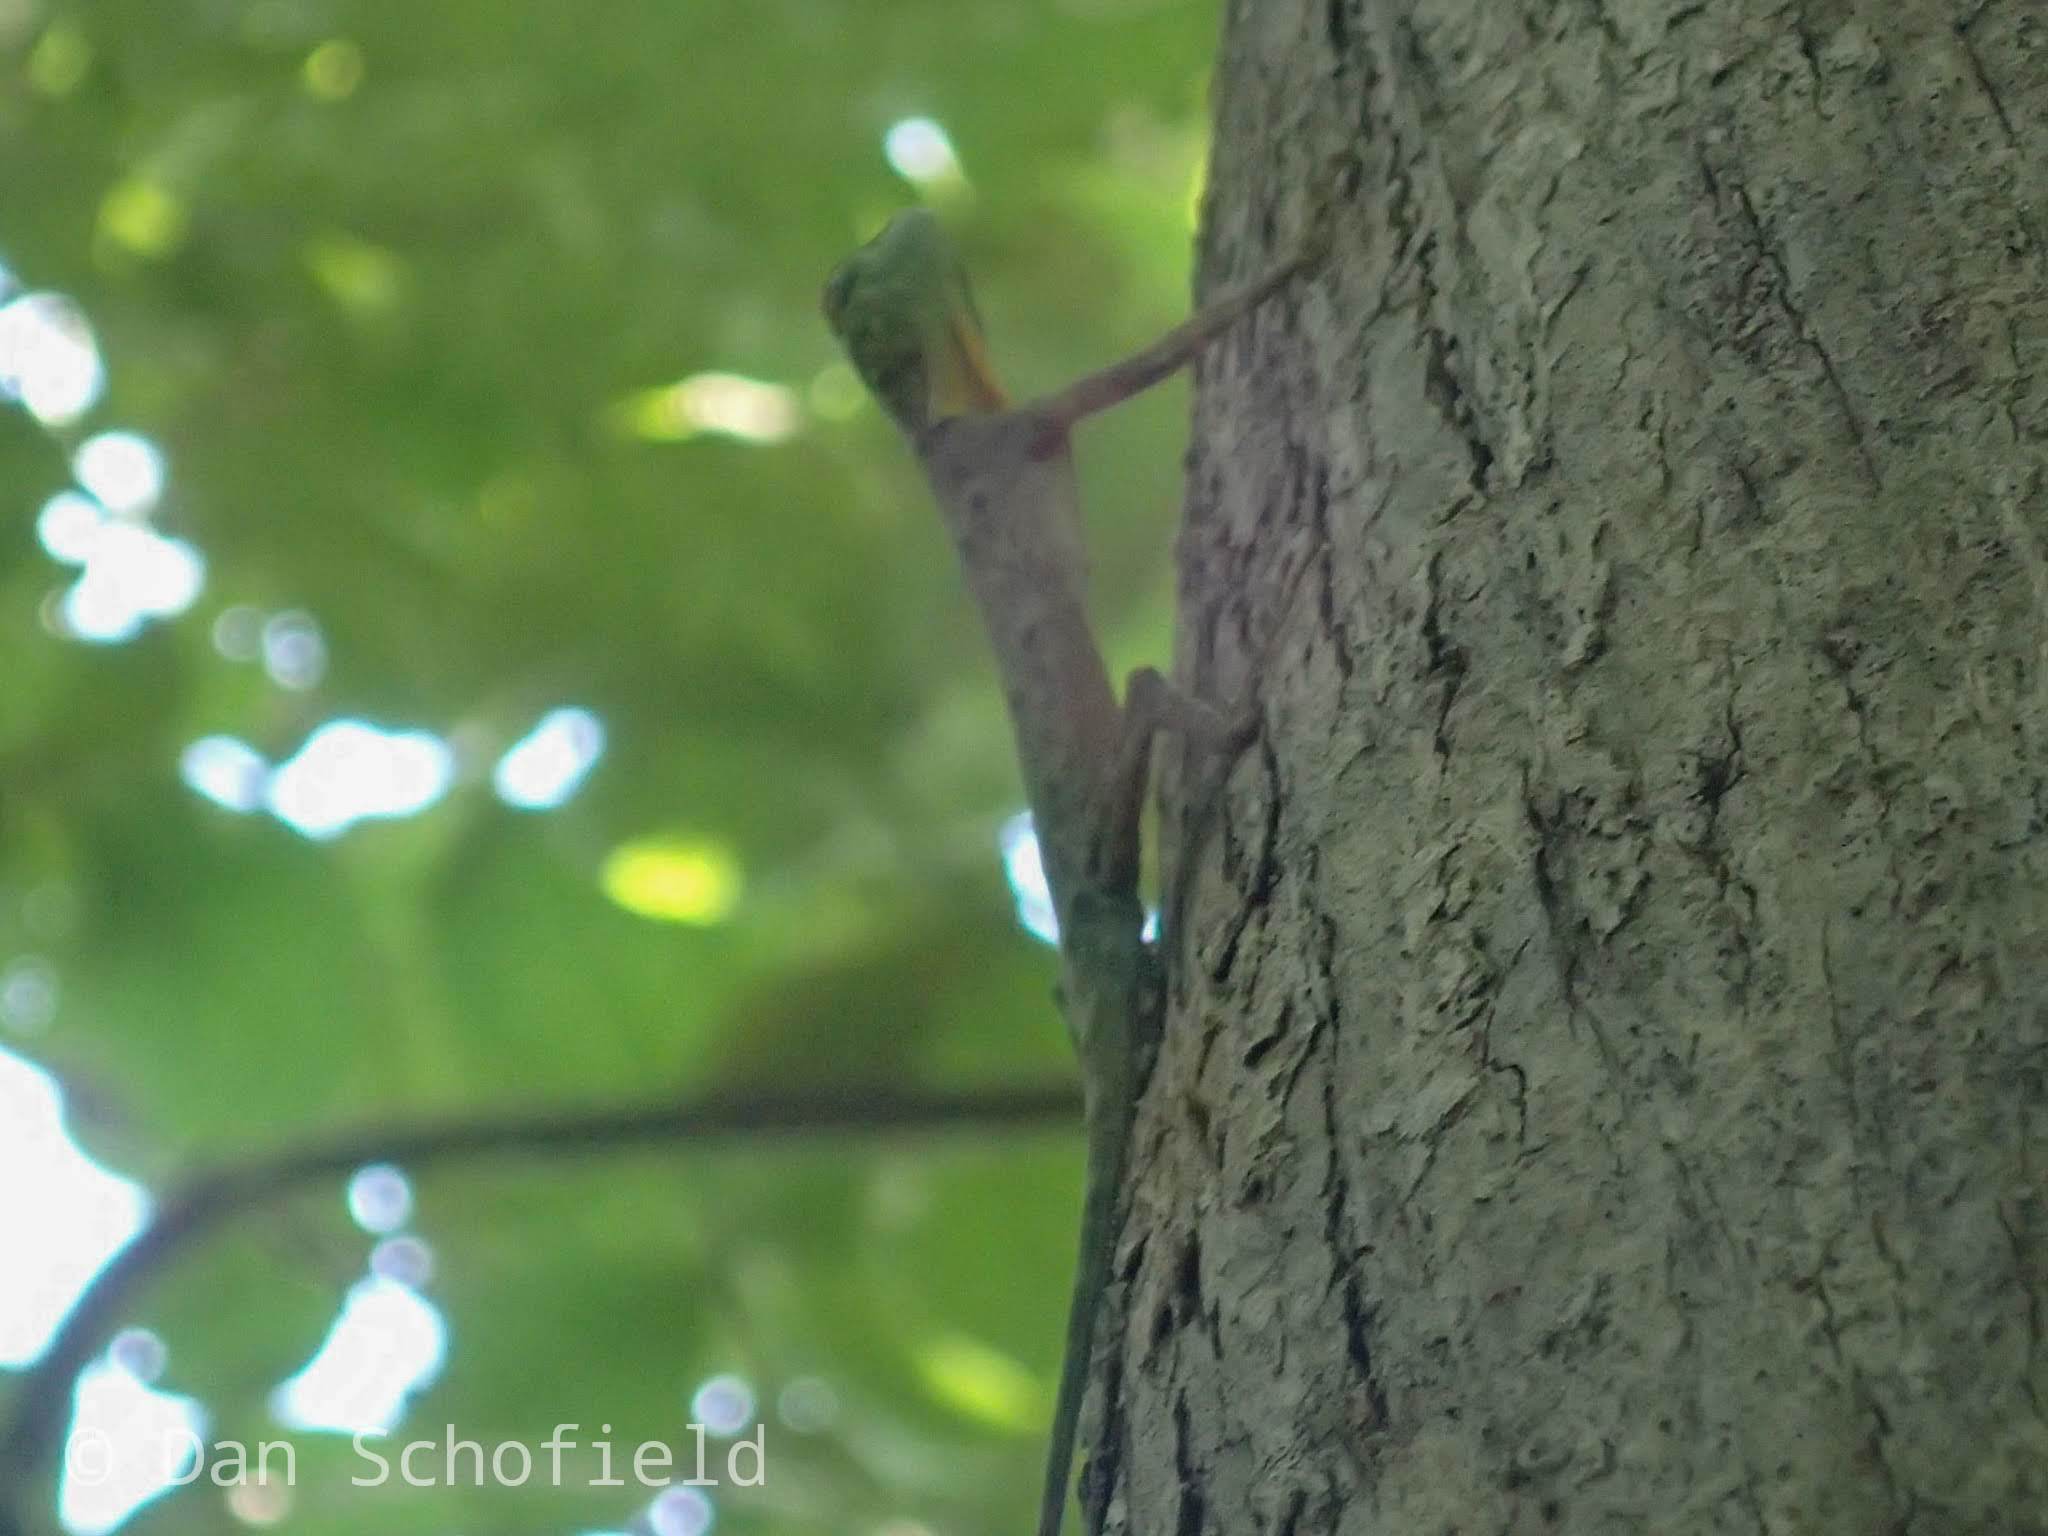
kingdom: Animalia
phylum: Chordata
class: Squamata
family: Agamidae
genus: Draco
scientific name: Draco spilonotus
